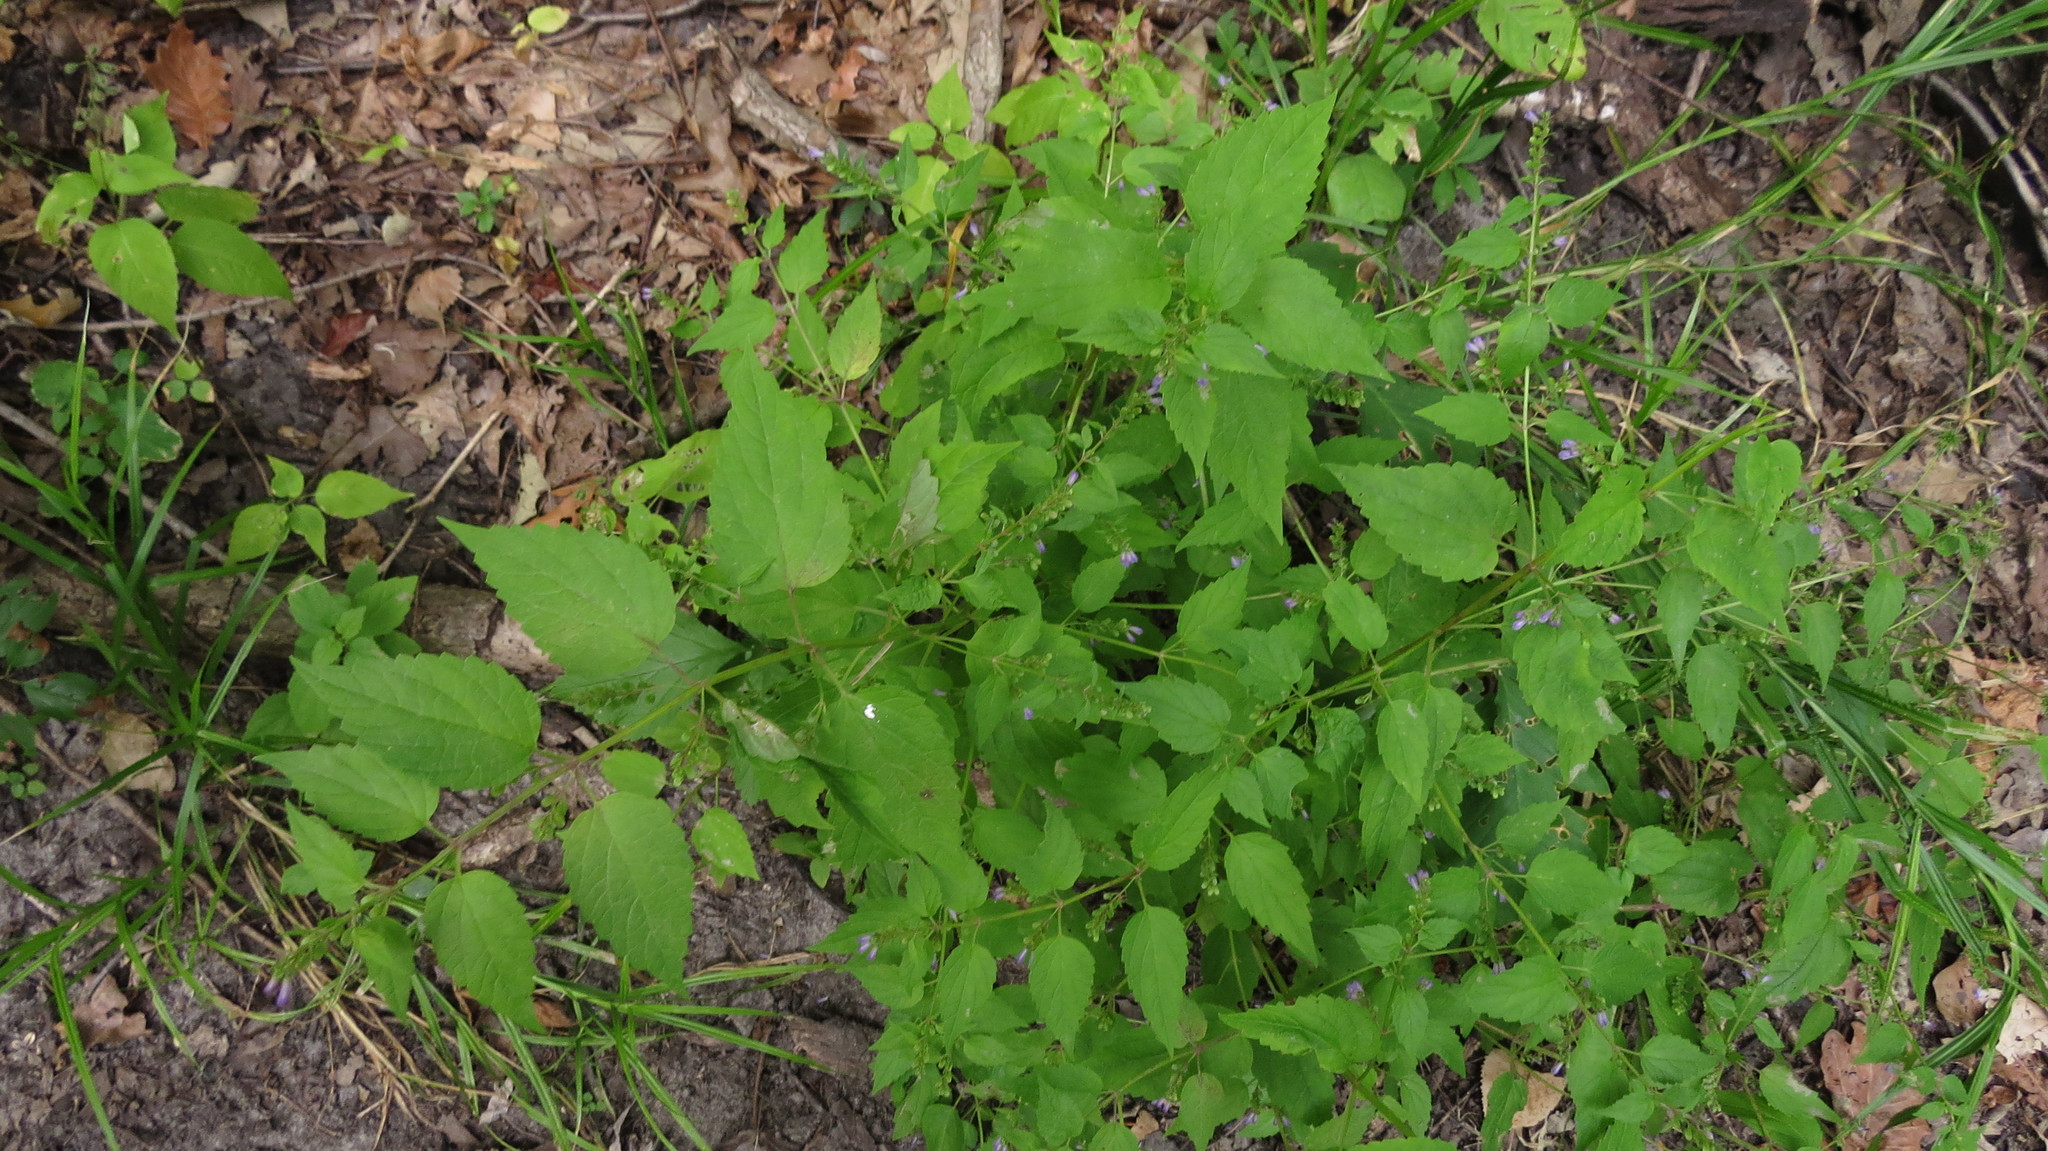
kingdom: Plantae
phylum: Tracheophyta
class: Magnoliopsida
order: Lamiales
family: Lamiaceae
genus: Scutellaria
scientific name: Scutellaria lateriflora
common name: Blue skullcap
